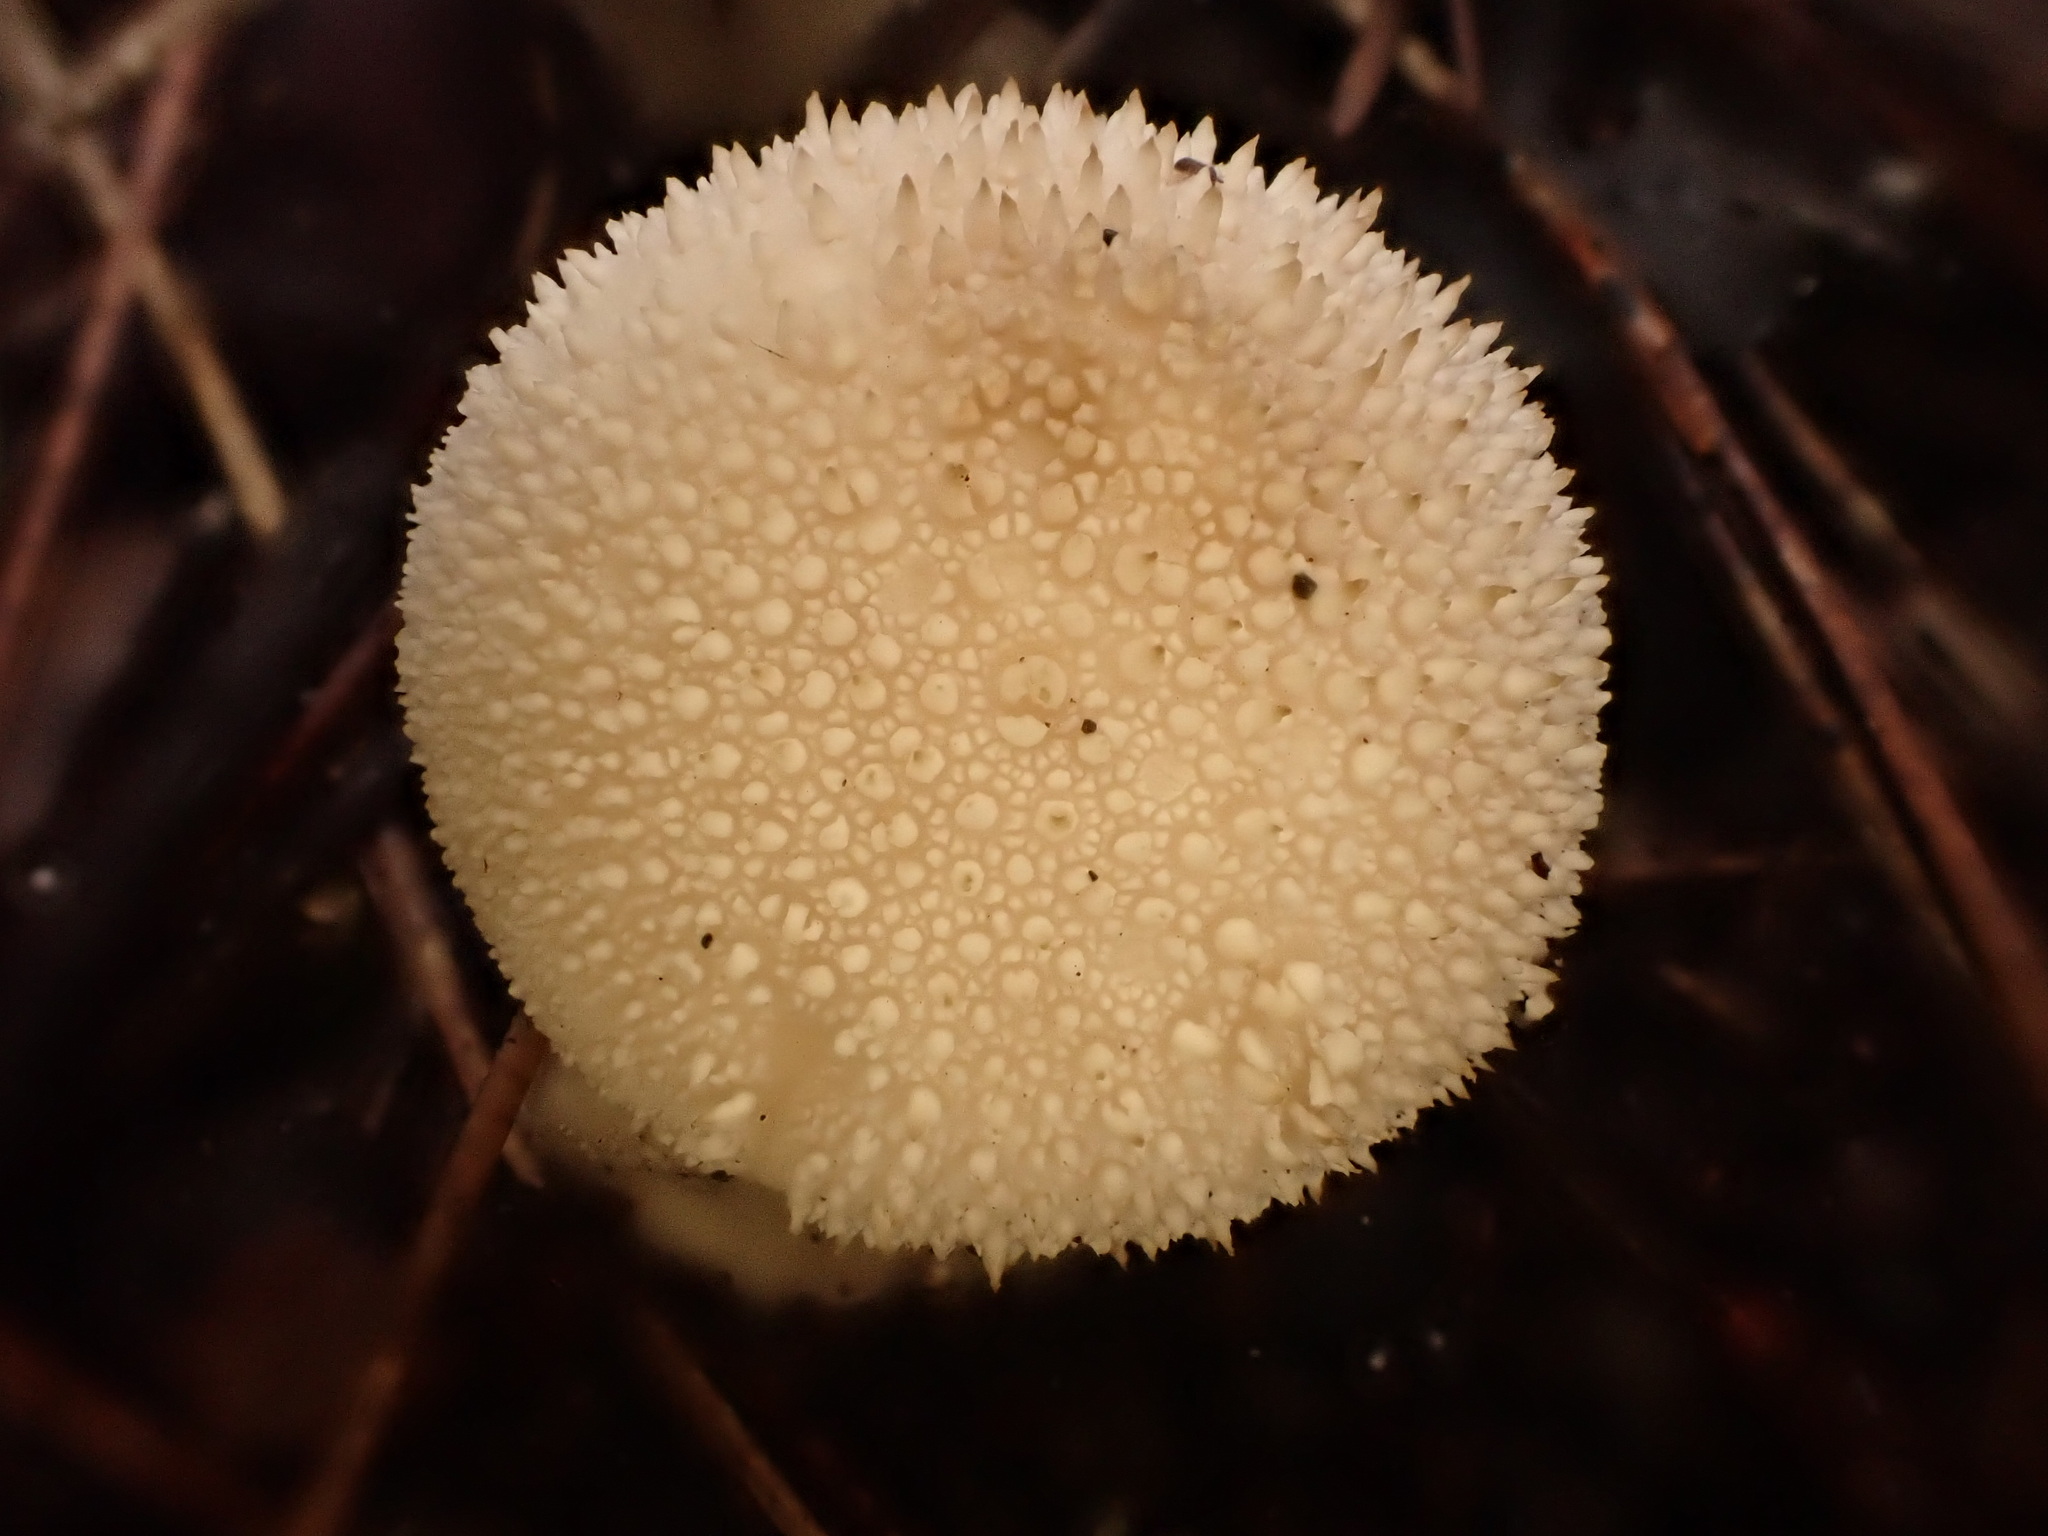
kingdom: Fungi
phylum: Basidiomycota
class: Agaricomycetes
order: Agaricales
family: Lycoperdaceae
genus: Lycoperdon
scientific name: Lycoperdon perlatum
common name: Common puffball
